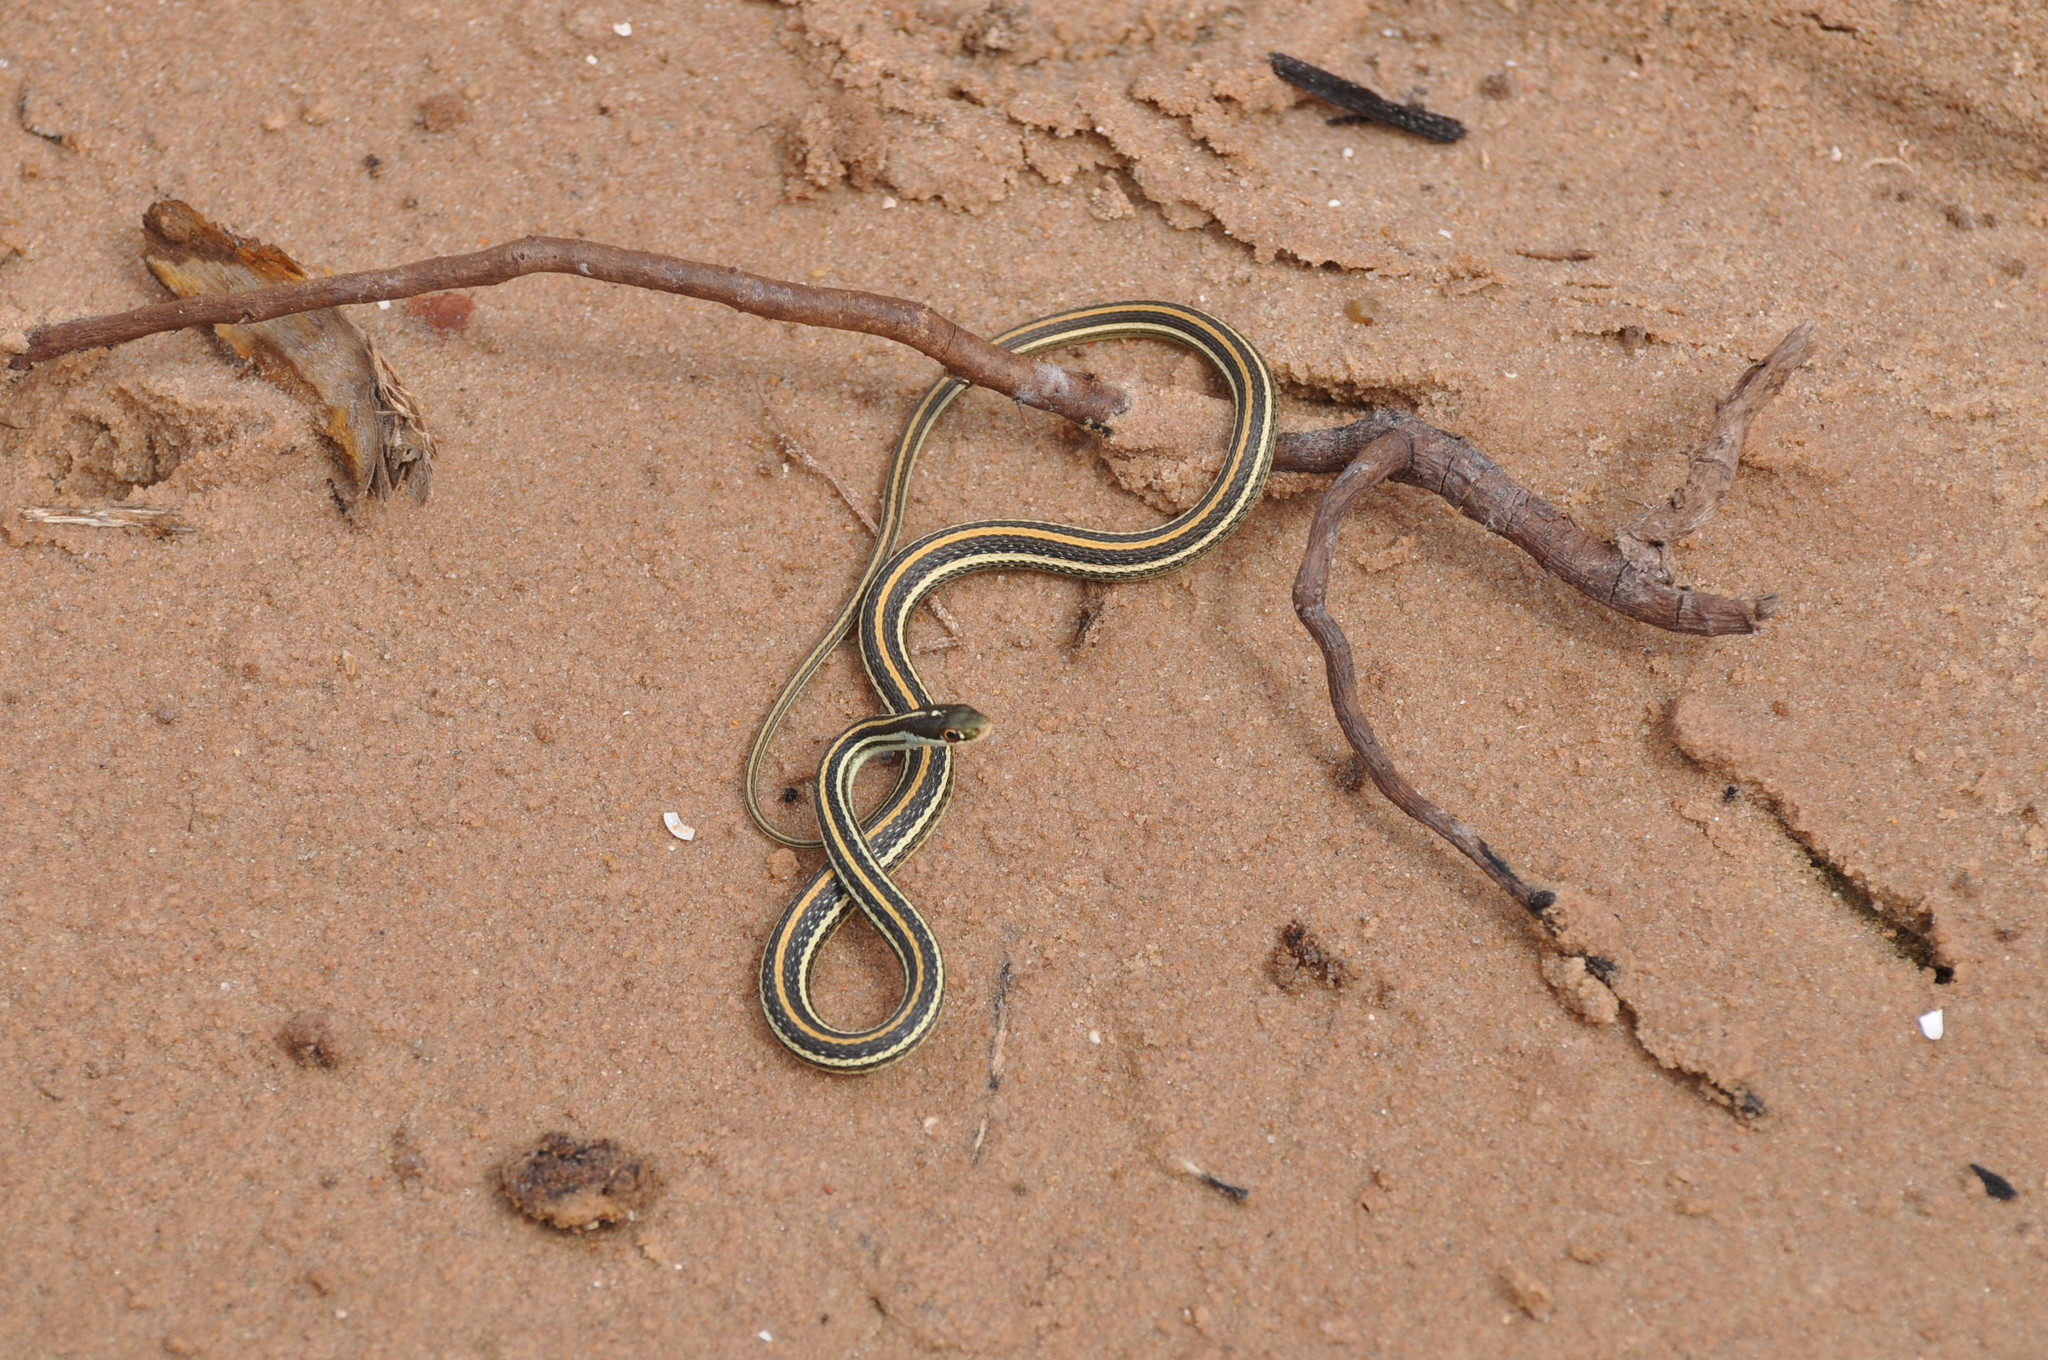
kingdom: Animalia
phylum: Chordata
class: Squamata
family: Colubridae
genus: Thamnophis
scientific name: Thamnophis proximus
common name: Western ribbon snake
